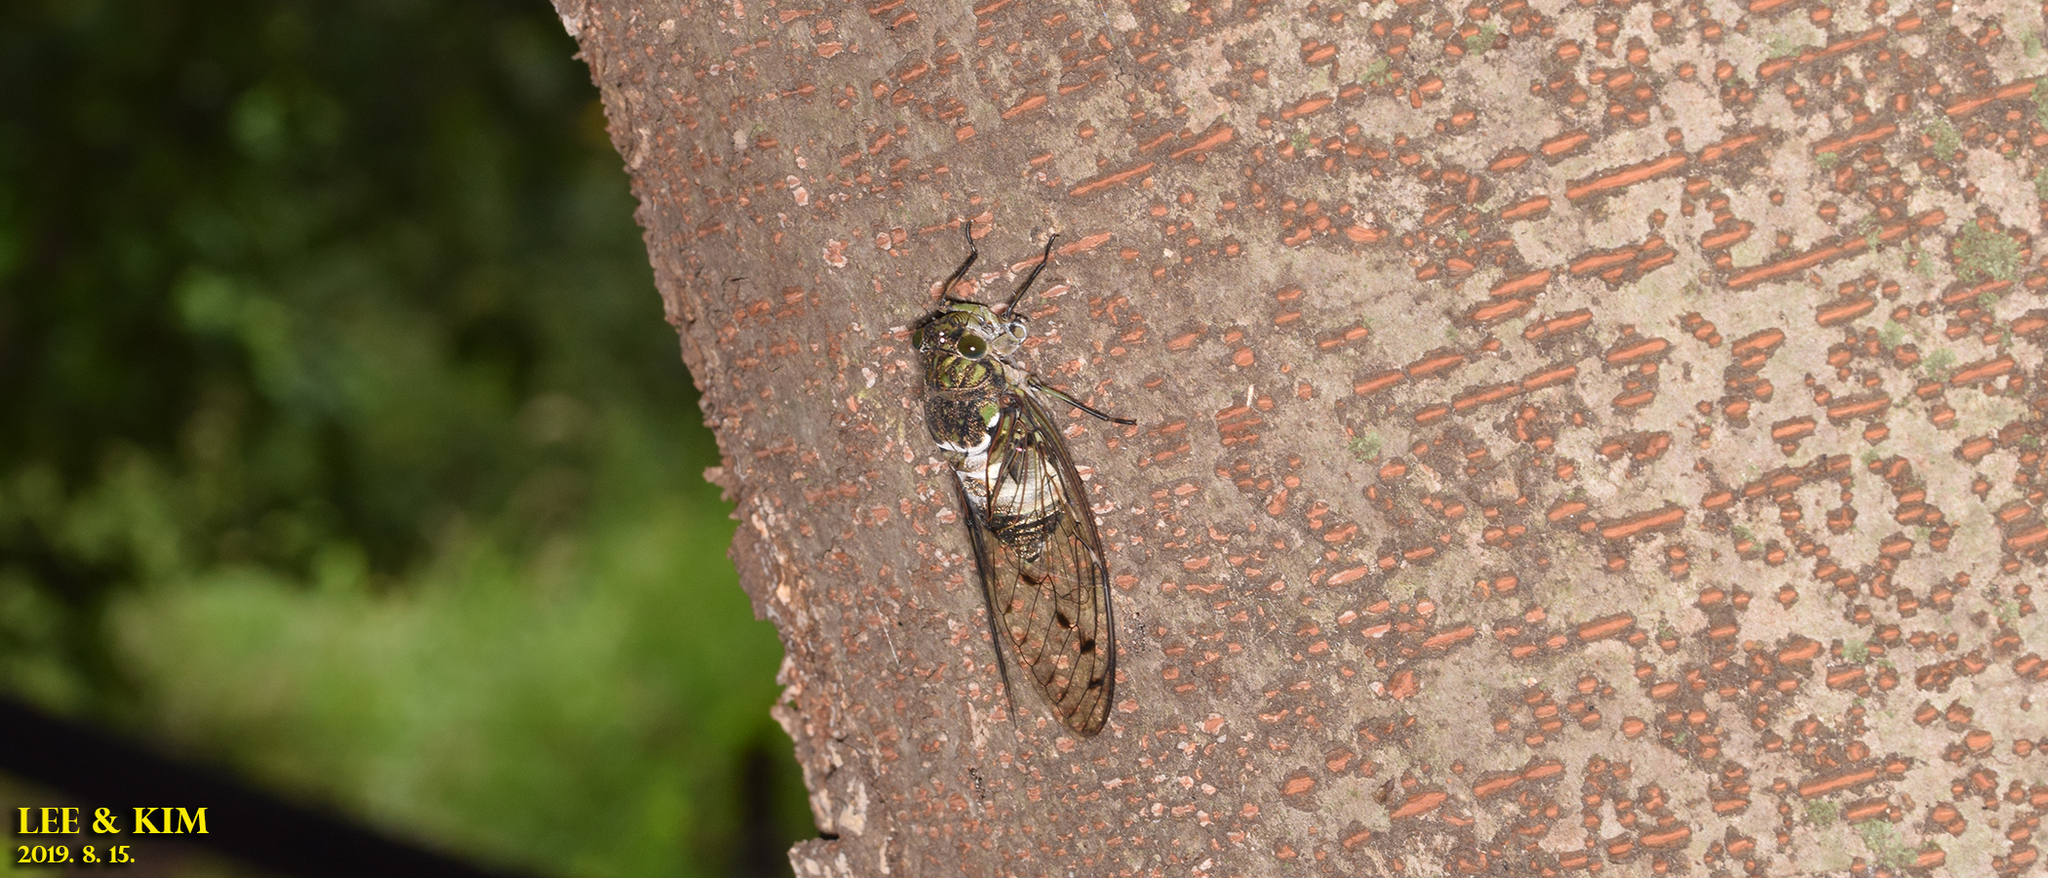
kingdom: Animalia
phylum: Arthropoda
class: Insecta
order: Hemiptera
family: Cicadidae
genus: Hyalessa
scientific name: Hyalessa maculaticollis
